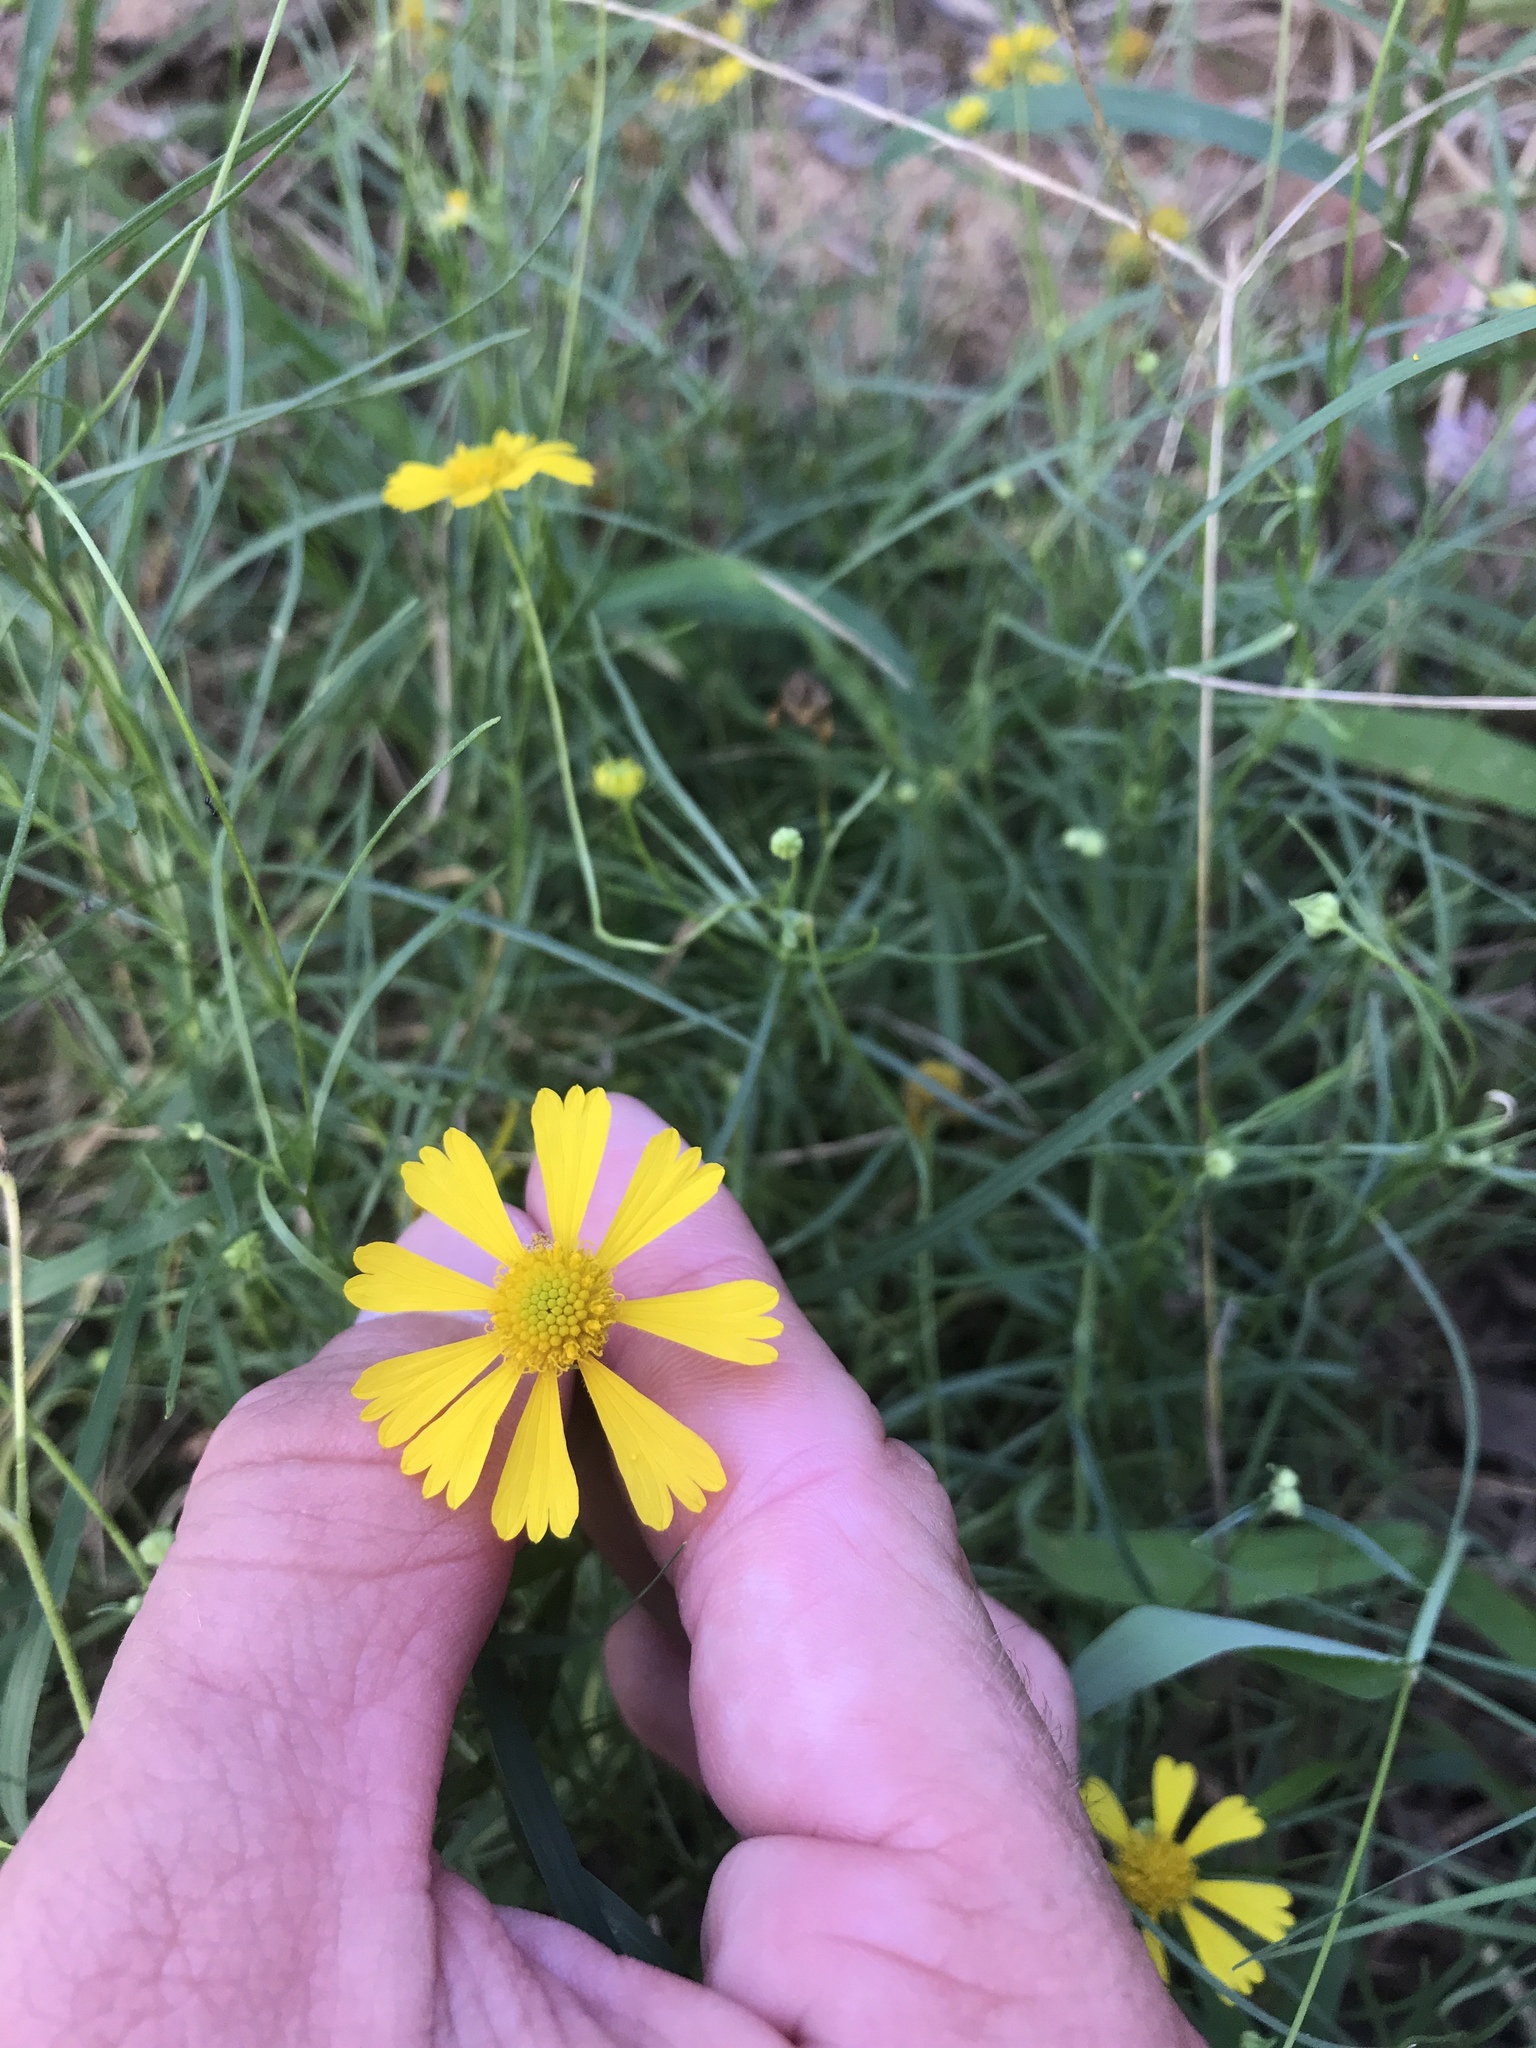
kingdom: Plantae
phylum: Tracheophyta
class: Magnoliopsida
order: Asterales
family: Asteraceae
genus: Helenium
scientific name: Helenium amarum
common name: Bitter sneezeweed
